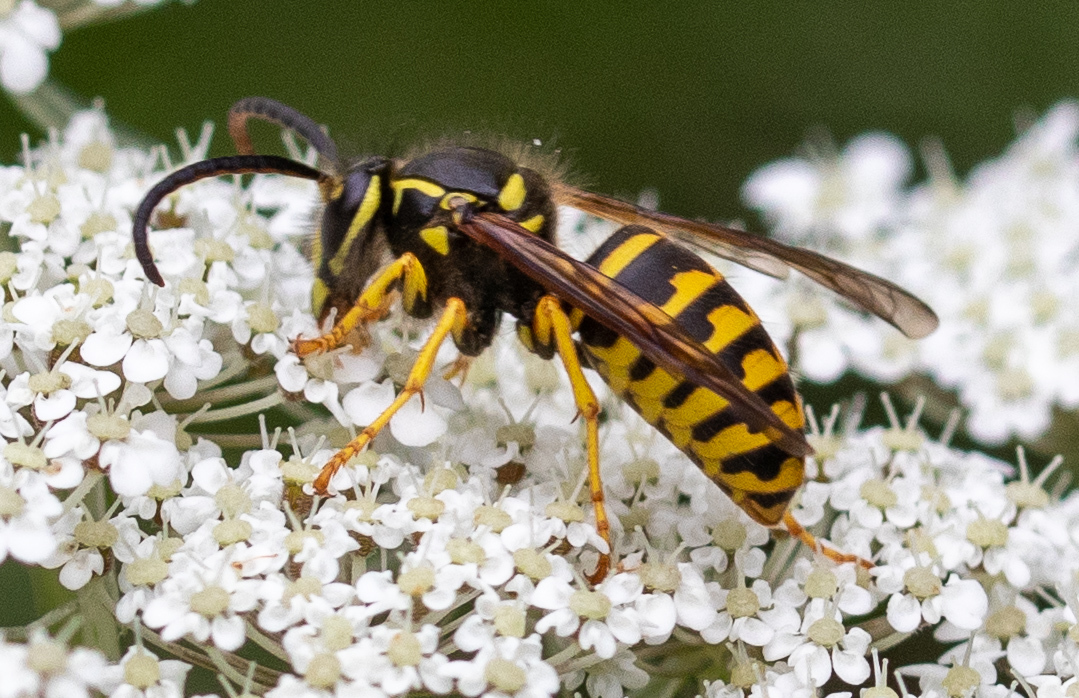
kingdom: Animalia
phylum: Arthropoda
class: Insecta
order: Hymenoptera
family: Vespidae
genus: Dolichovespula
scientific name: Dolichovespula arenaria
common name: Aerial yellowjacket
